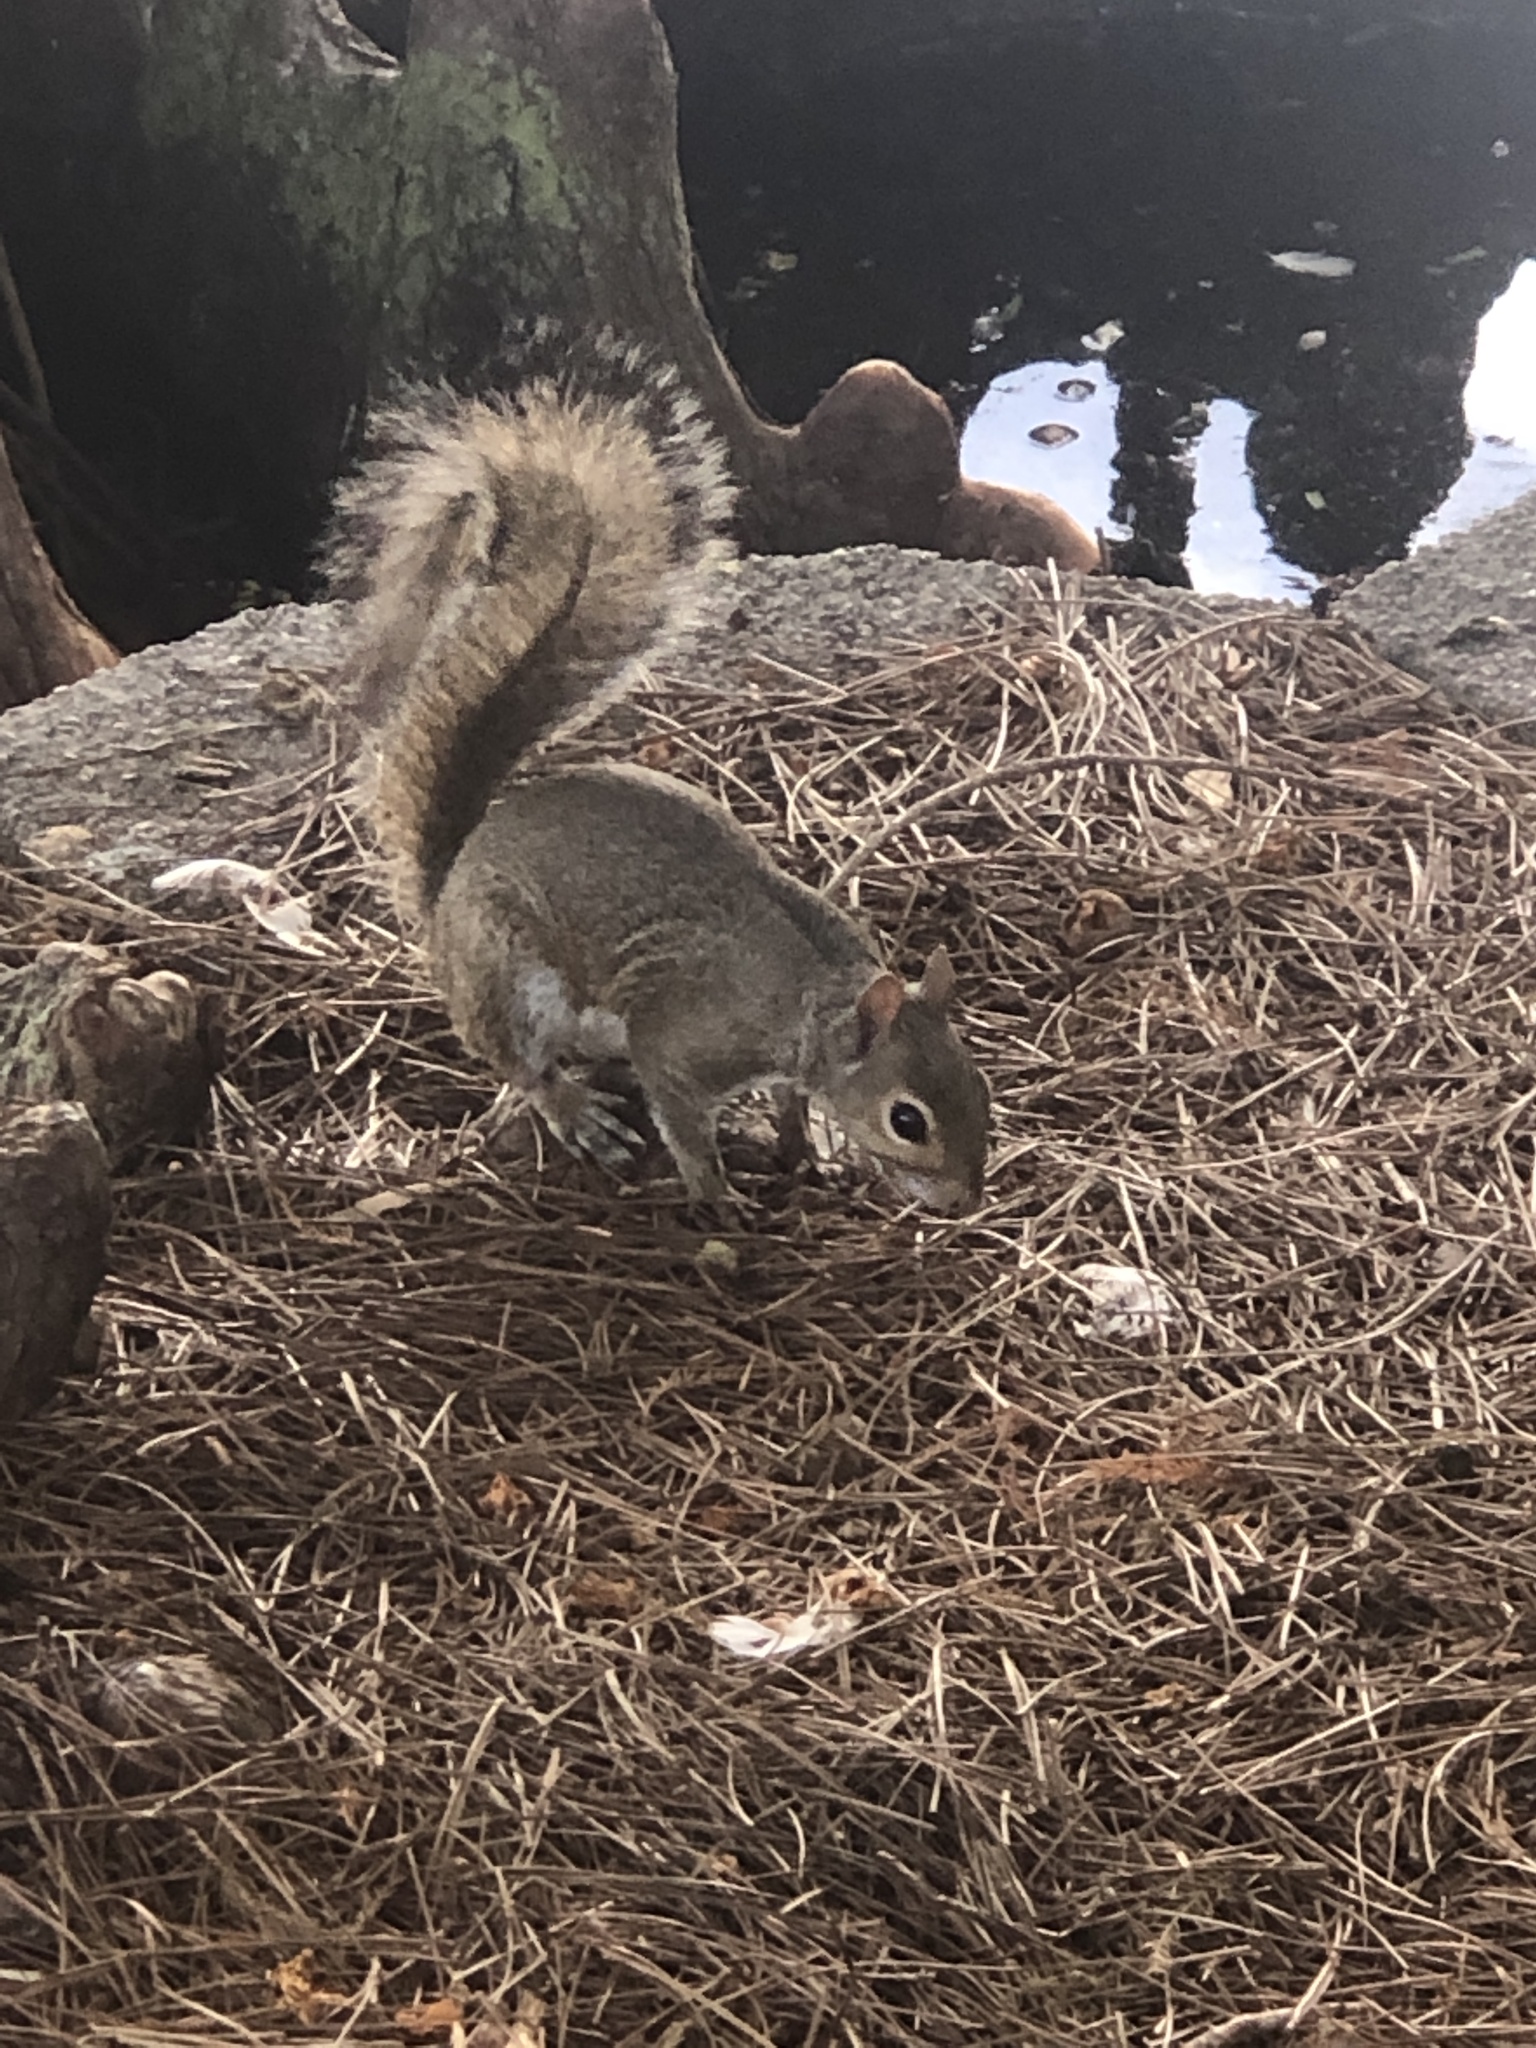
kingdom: Animalia
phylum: Chordata
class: Mammalia
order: Rodentia
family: Sciuridae
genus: Sciurus
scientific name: Sciurus carolinensis
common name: Eastern gray squirrel
